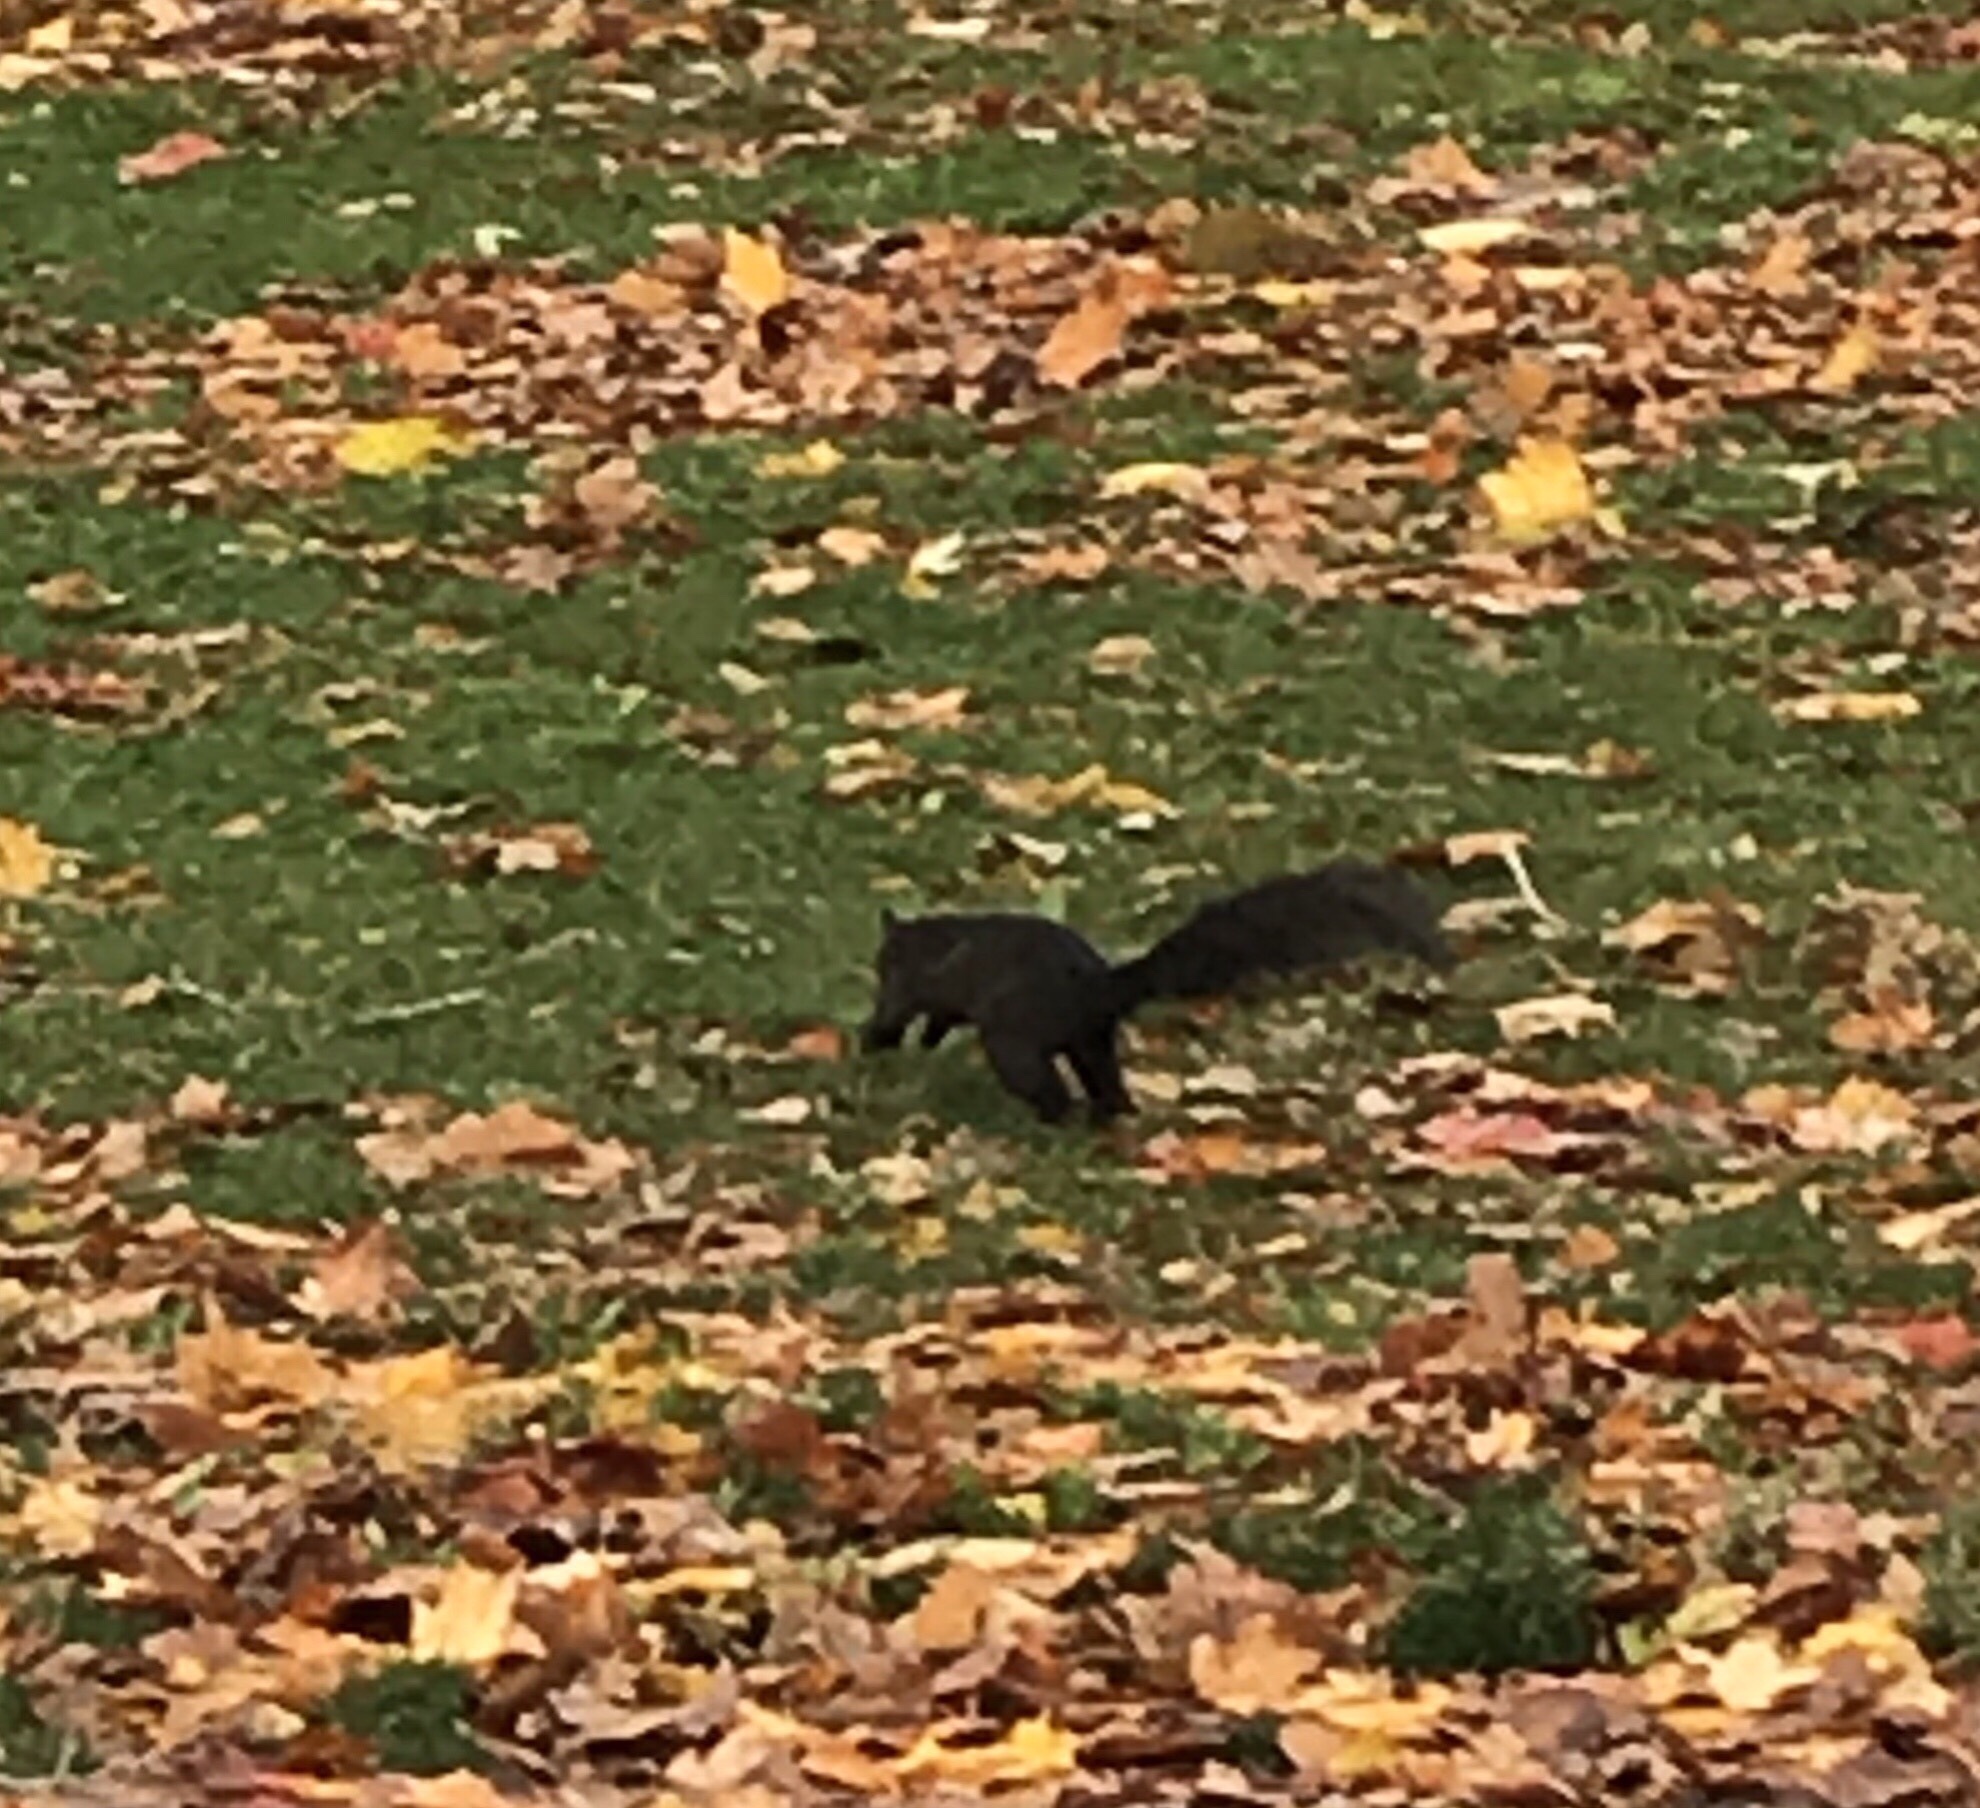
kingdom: Animalia
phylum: Chordata
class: Mammalia
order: Rodentia
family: Sciuridae
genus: Sciurus
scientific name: Sciurus carolinensis
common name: Eastern gray squirrel
